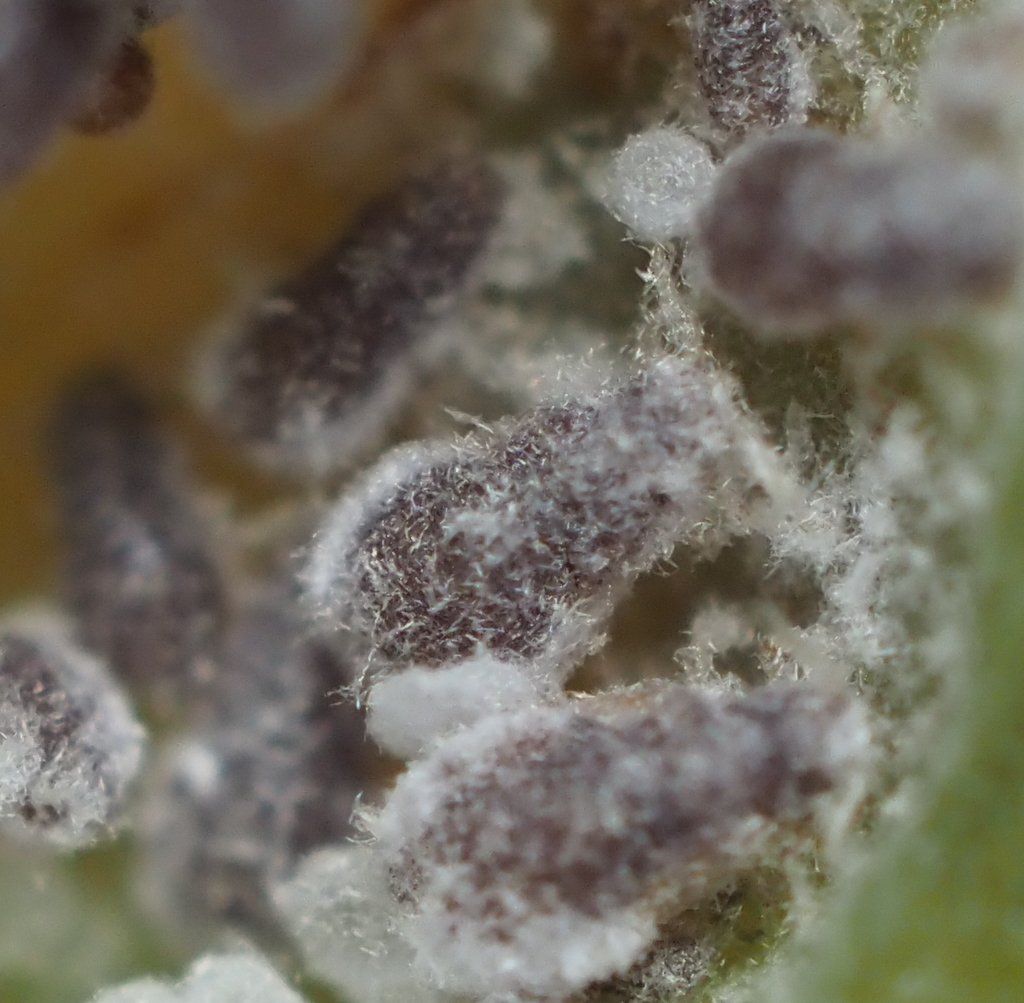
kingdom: Animalia
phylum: Arthropoda
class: Insecta
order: Hemiptera
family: Aphididae
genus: Hormaphis
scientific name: Hormaphis hamamelidis
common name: Witch-hazel cone gall aphid
